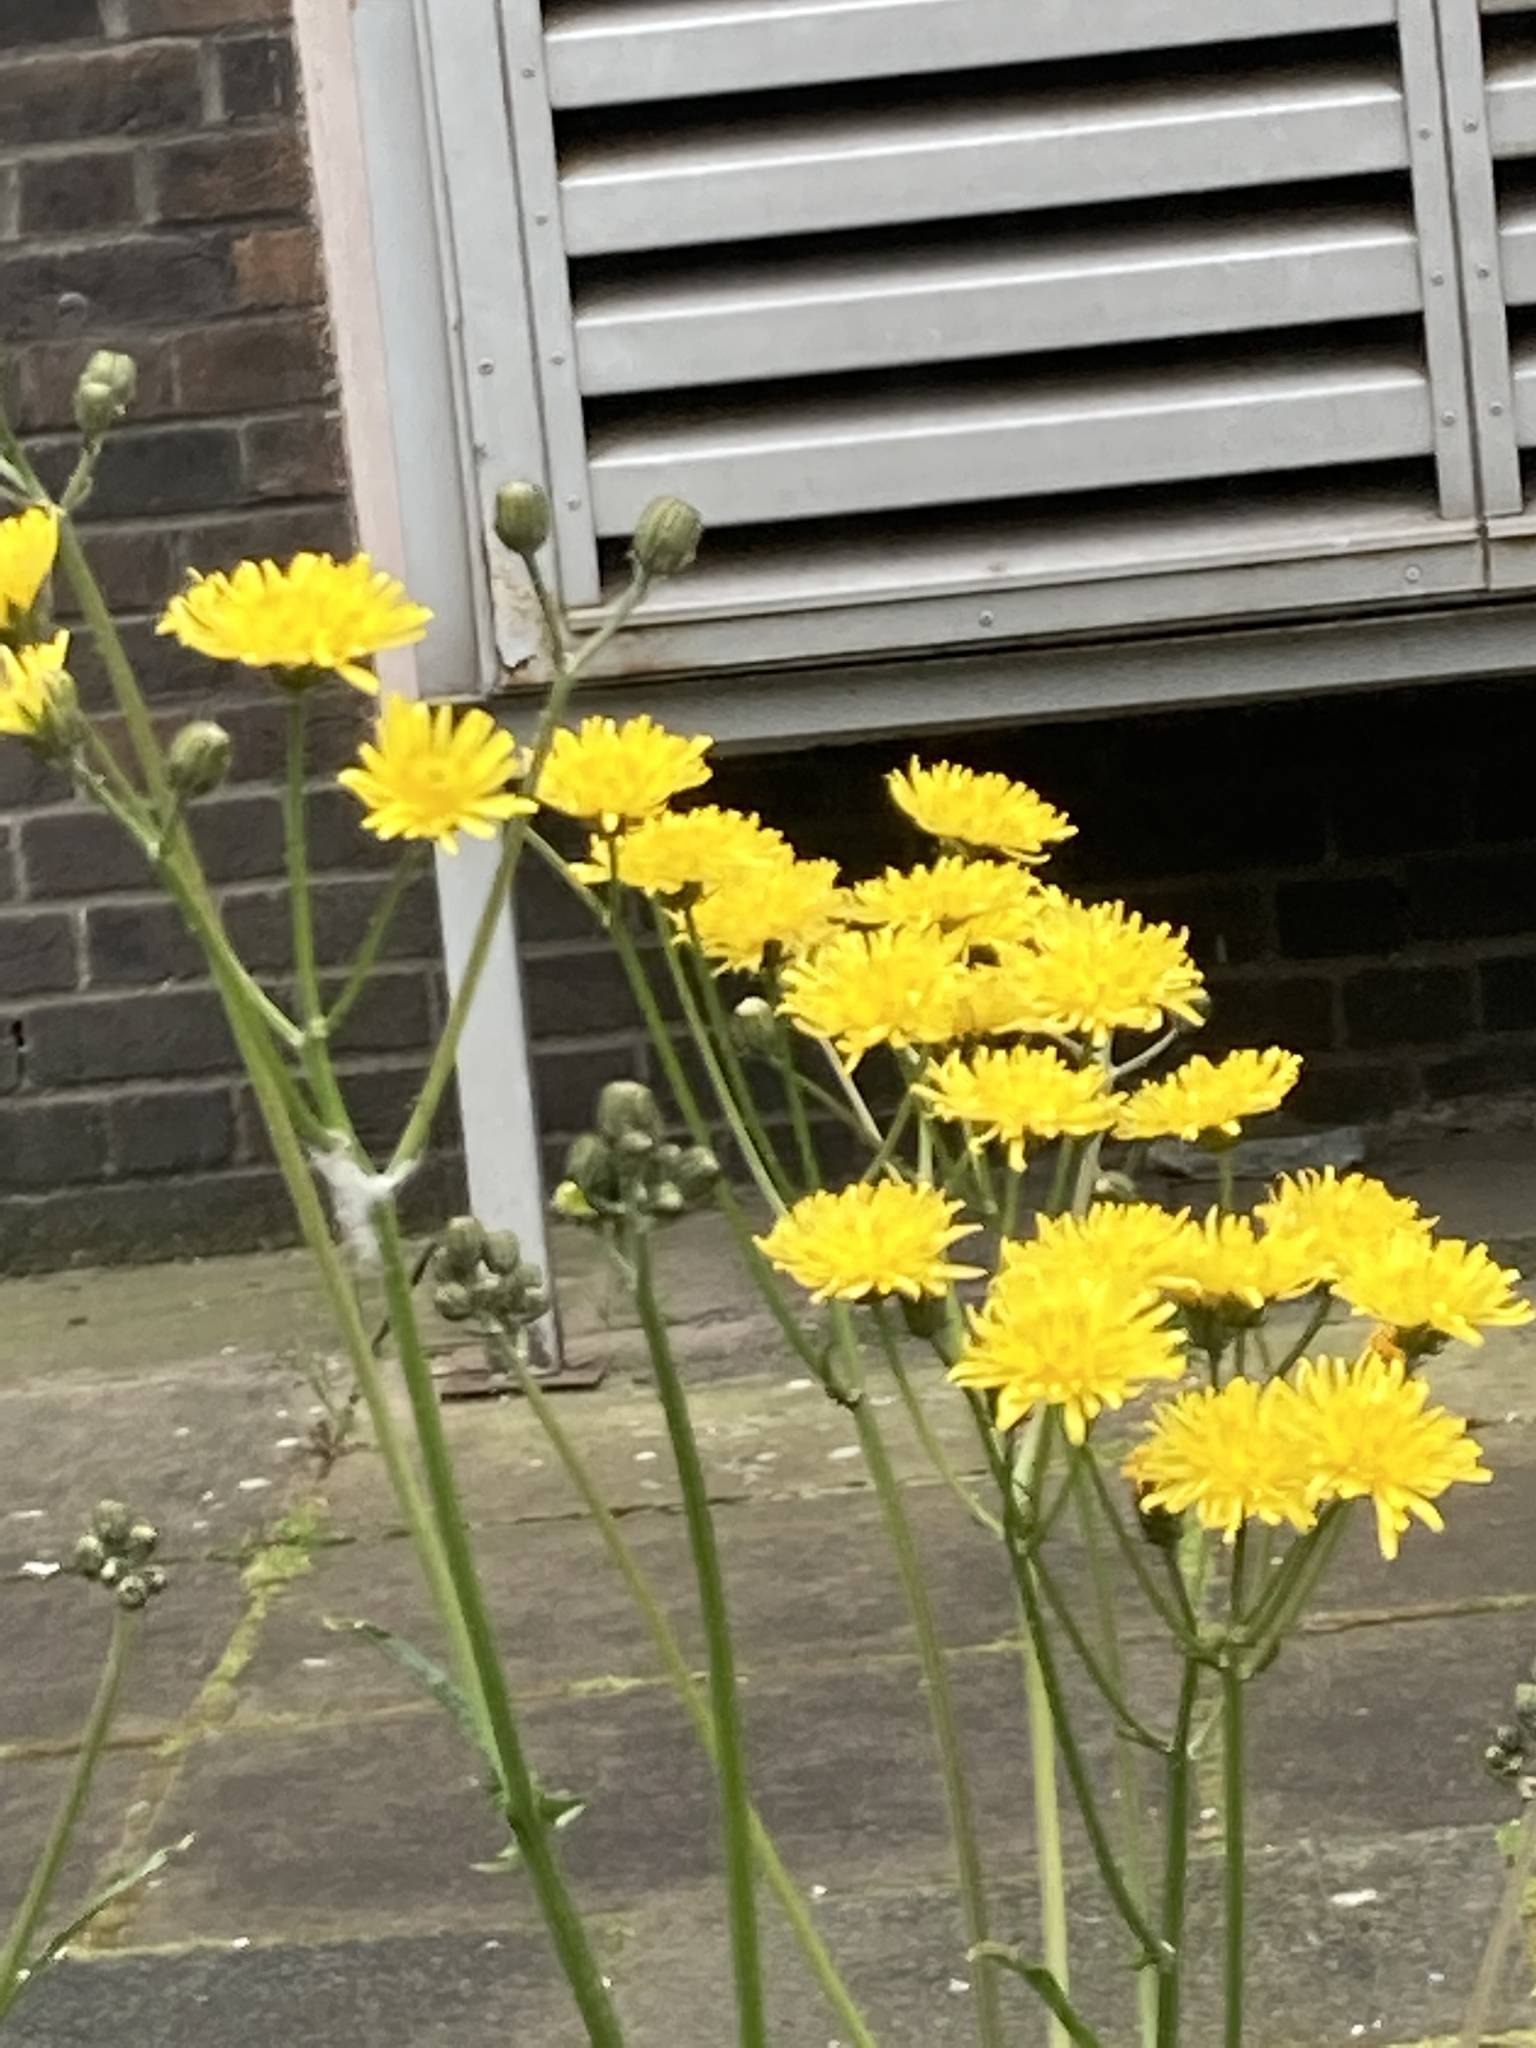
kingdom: Plantae
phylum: Tracheophyta
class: Magnoliopsida
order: Asterales
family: Asteraceae
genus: Crepis
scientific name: Crepis vesicaria
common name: Beaked hawksbeard
